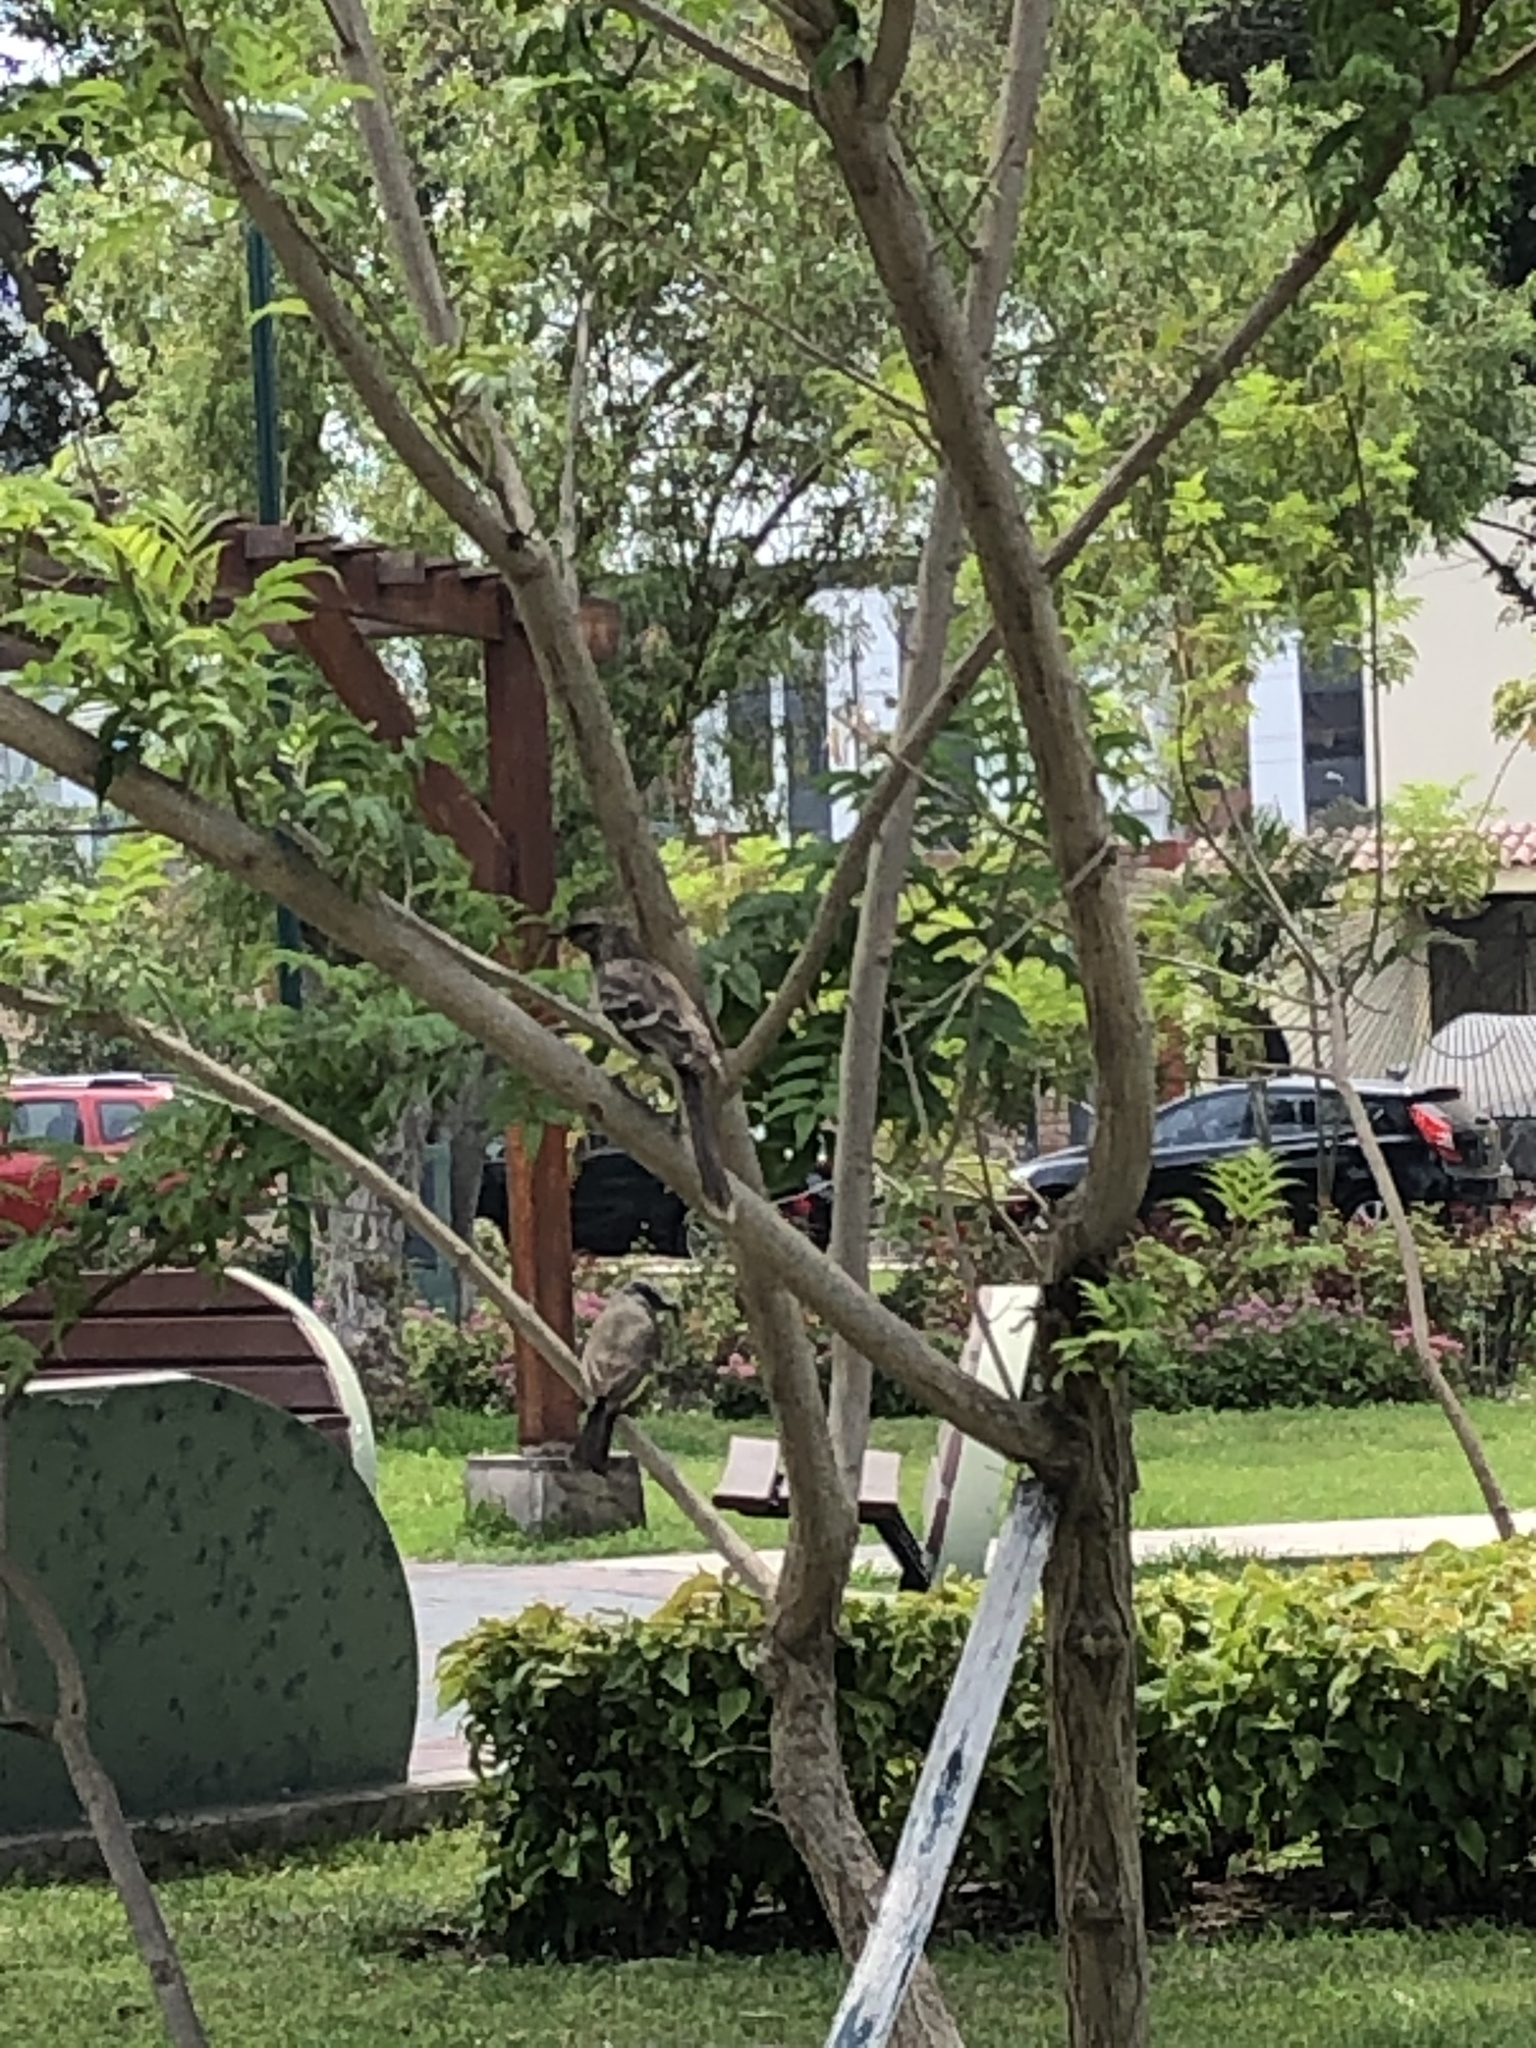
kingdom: Animalia
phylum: Chordata
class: Aves
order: Passeriformes
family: Tyrannidae
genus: Tyrannus
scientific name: Tyrannus melancholicus
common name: Tropical kingbird
